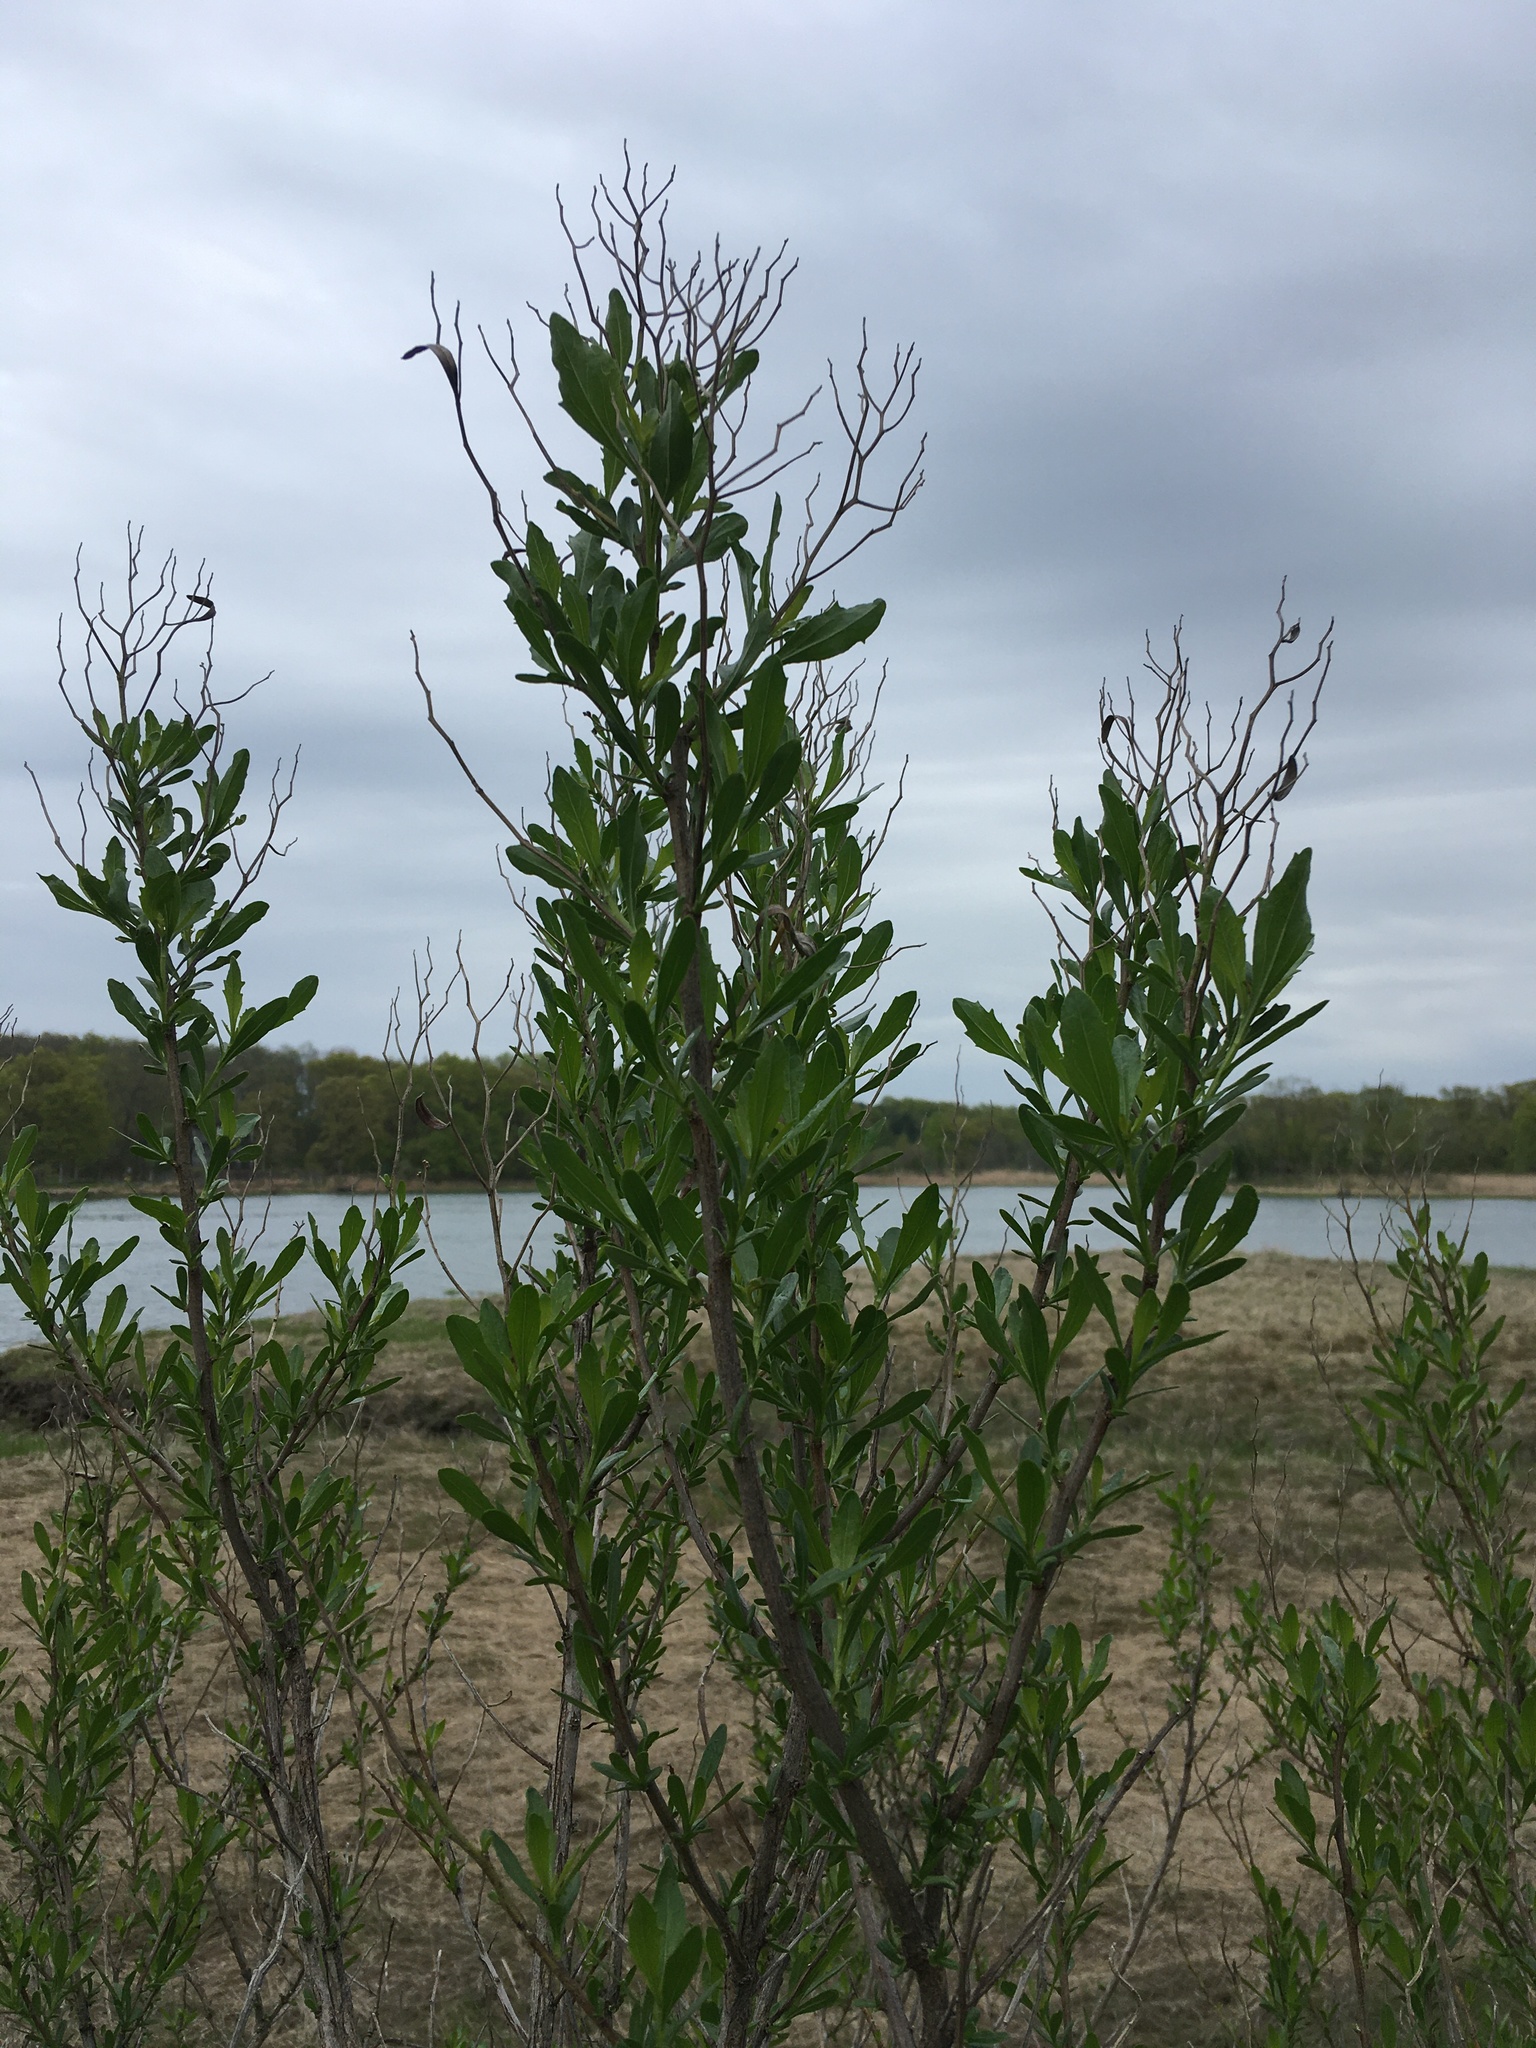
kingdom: Plantae
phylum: Tracheophyta
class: Magnoliopsida
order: Asterales
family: Asteraceae
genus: Baccharis
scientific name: Baccharis halimifolia
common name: Eastern baccharis
